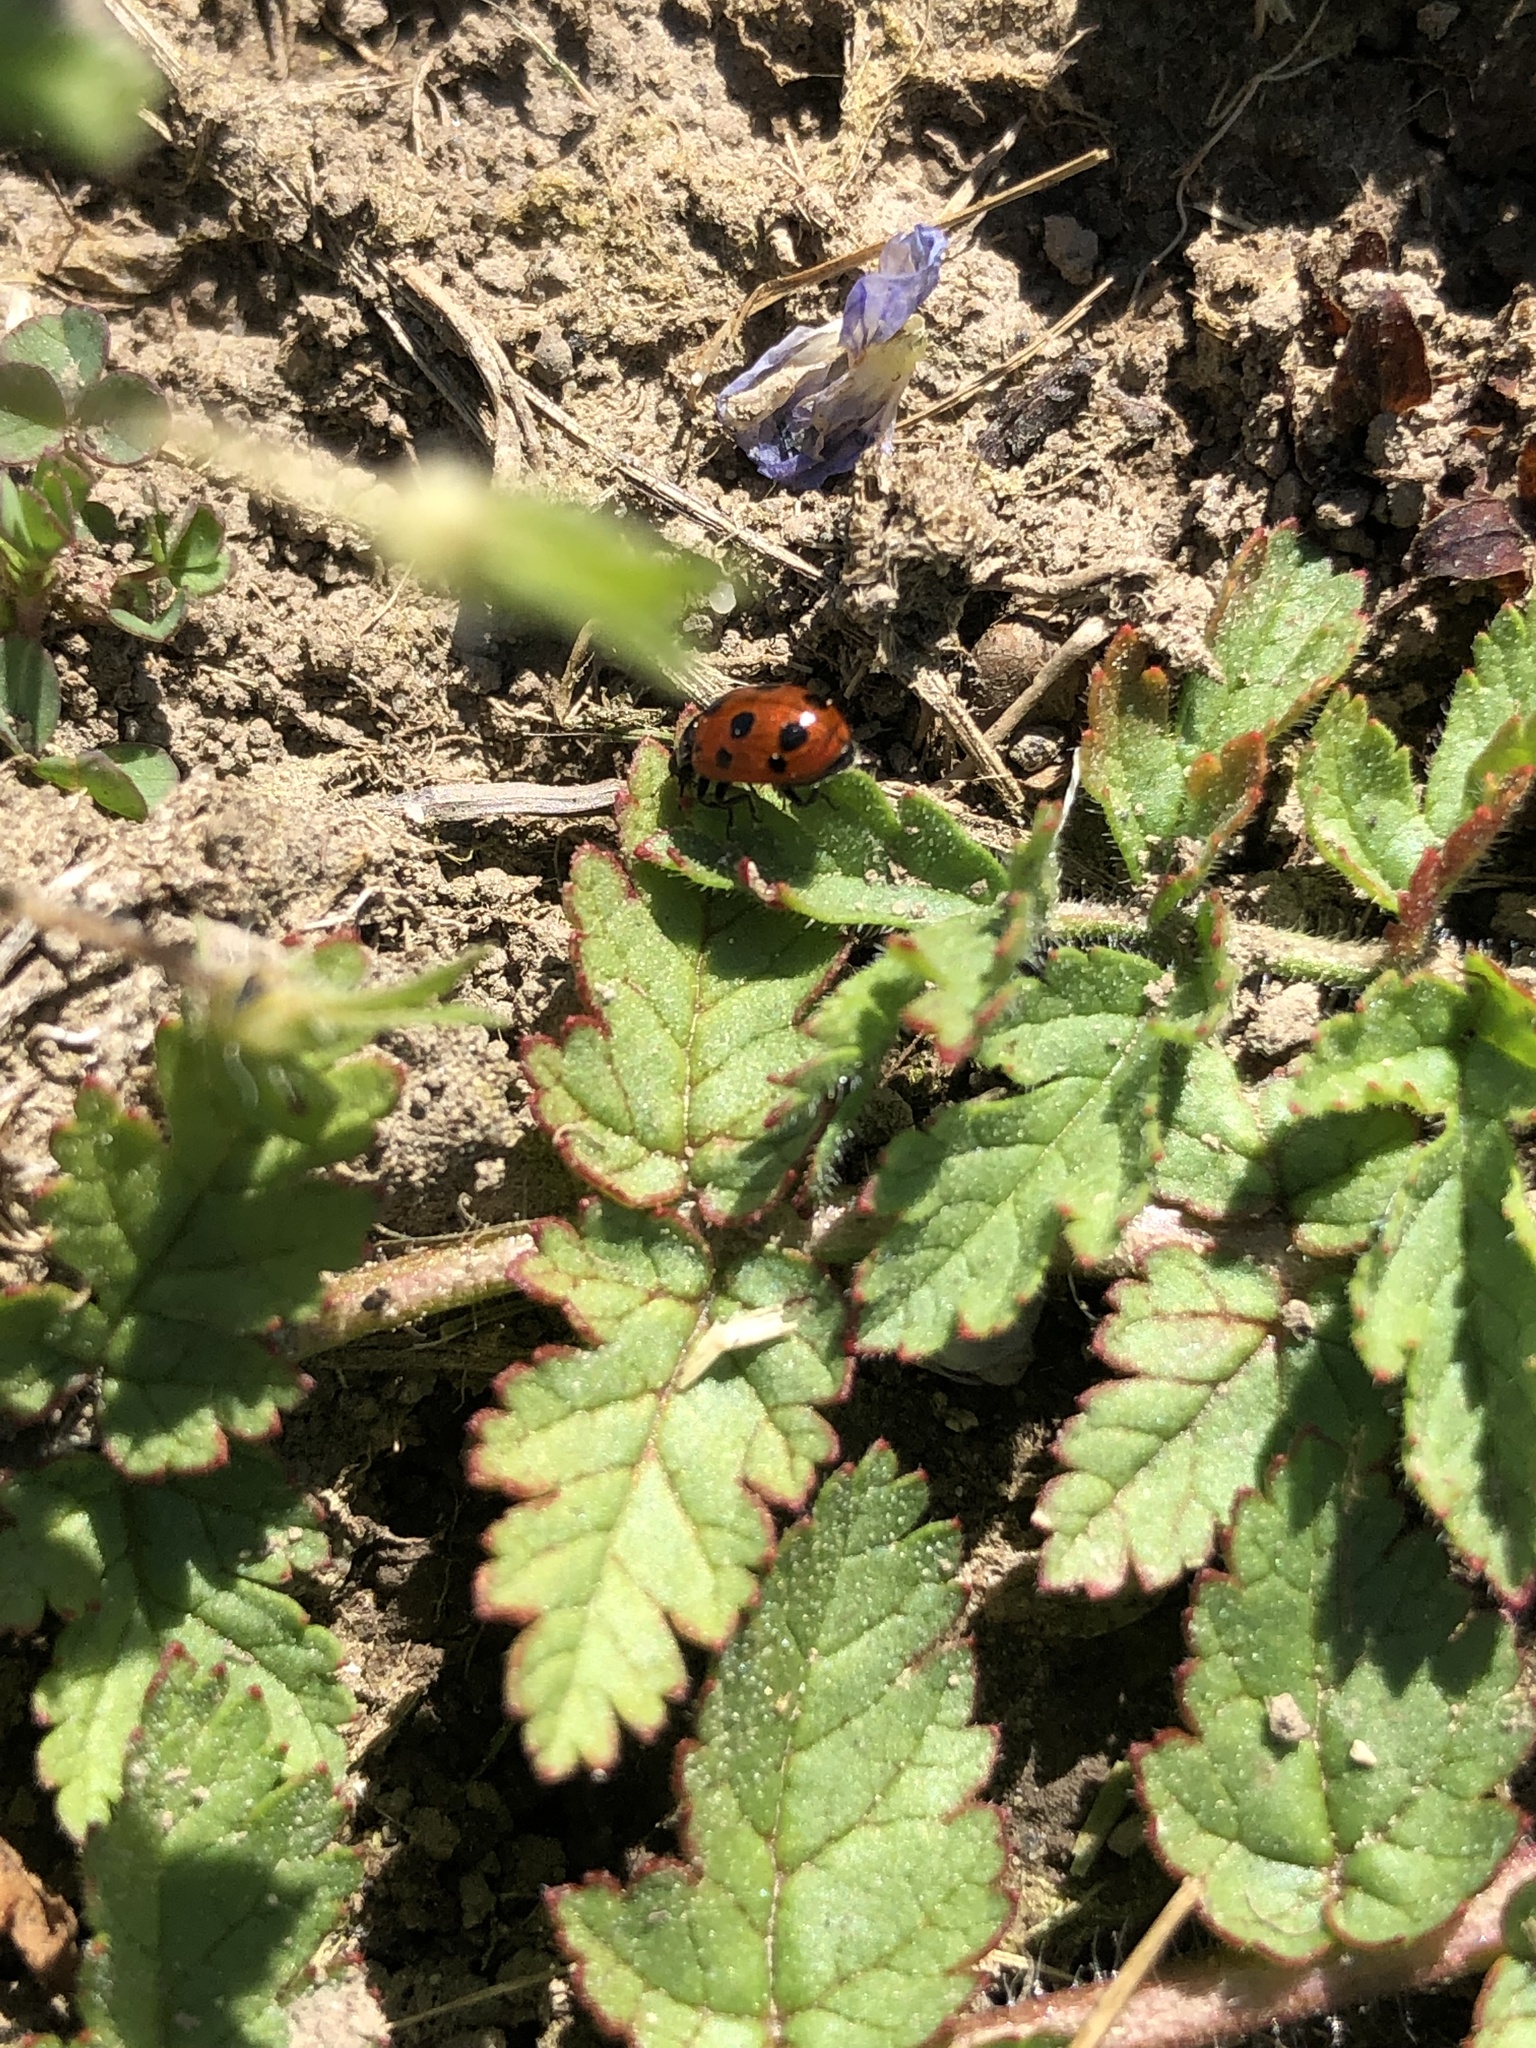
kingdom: Animalia
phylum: Arthropoda
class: Insecta
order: Coleoptera
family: Coccinellidae
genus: Coccinella
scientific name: Coccinella undecimpunctata
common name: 11-spot ladybird
